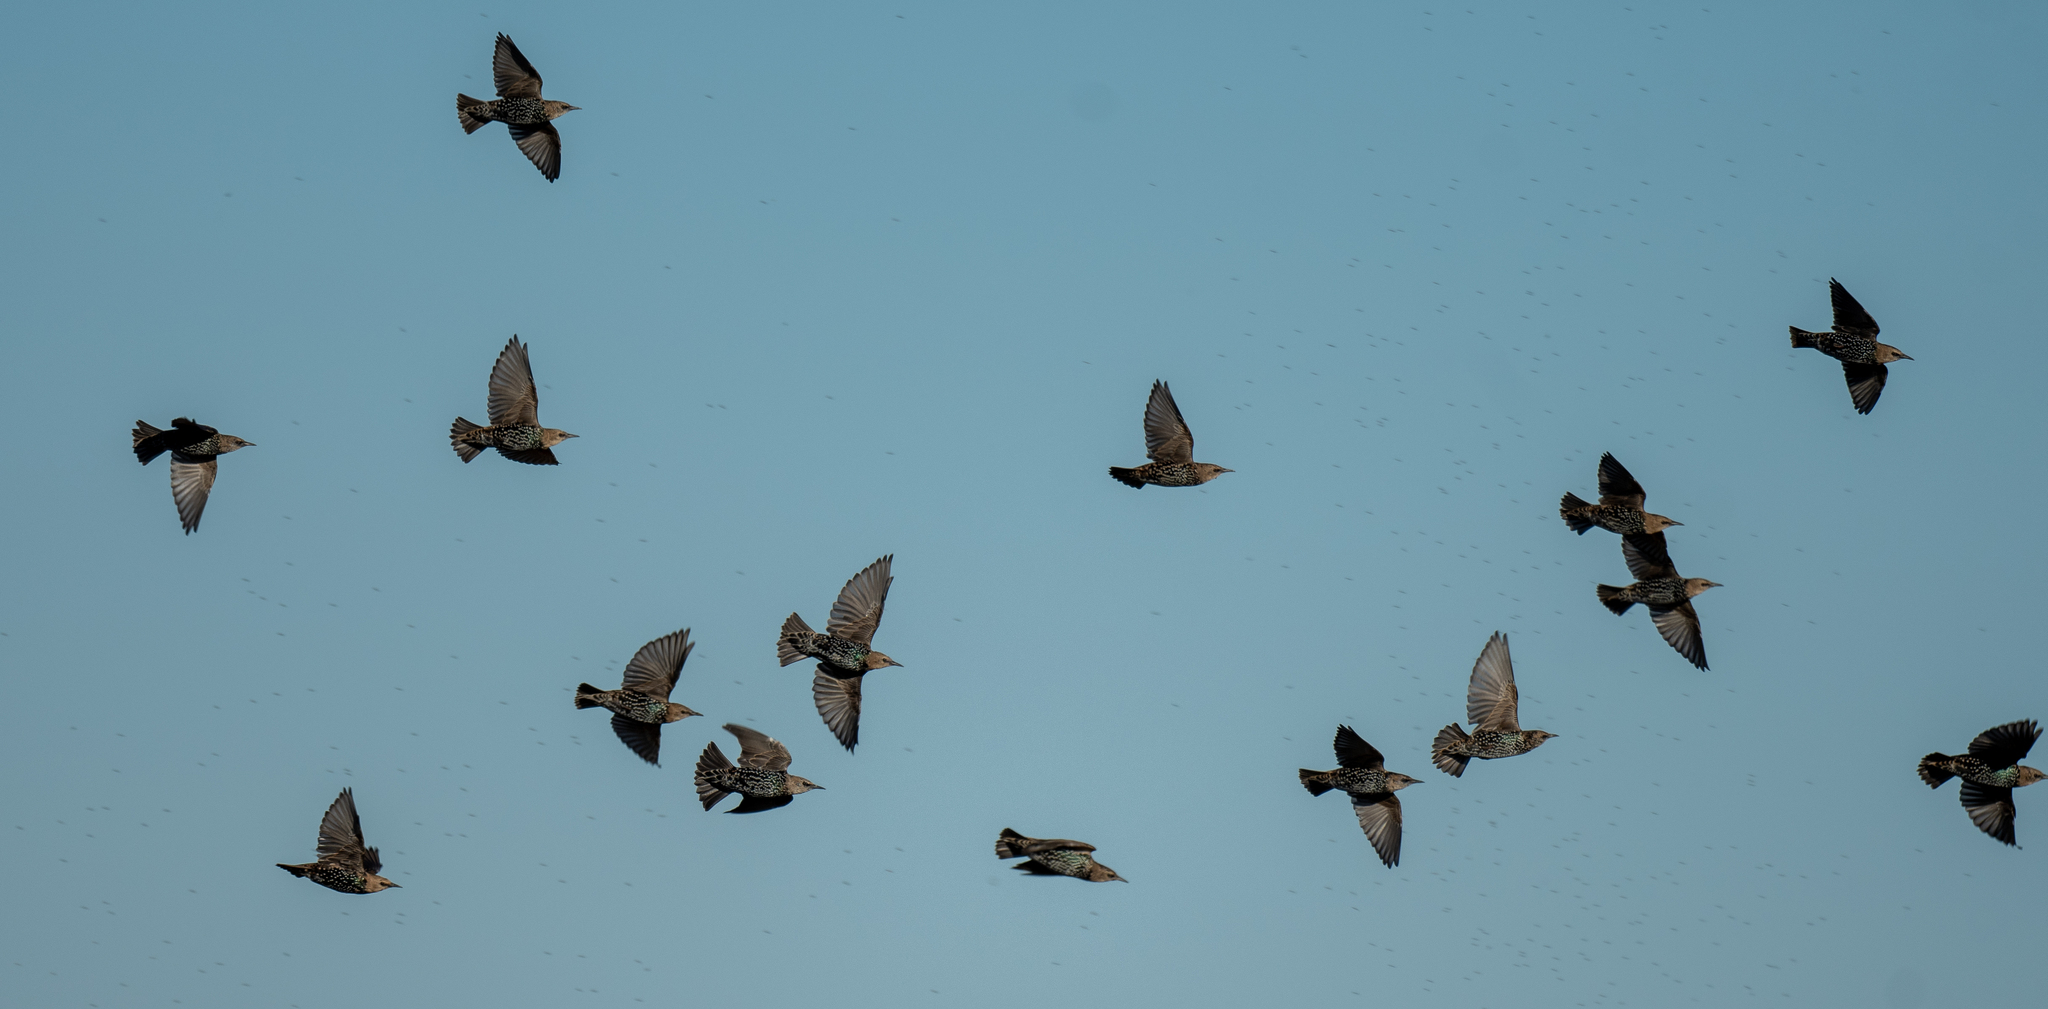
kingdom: Animalia
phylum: Chordata
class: Aves
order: Passeriformes
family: Sturnidae
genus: Sturnus
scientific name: Sturnus vulgaris
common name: Common starling
